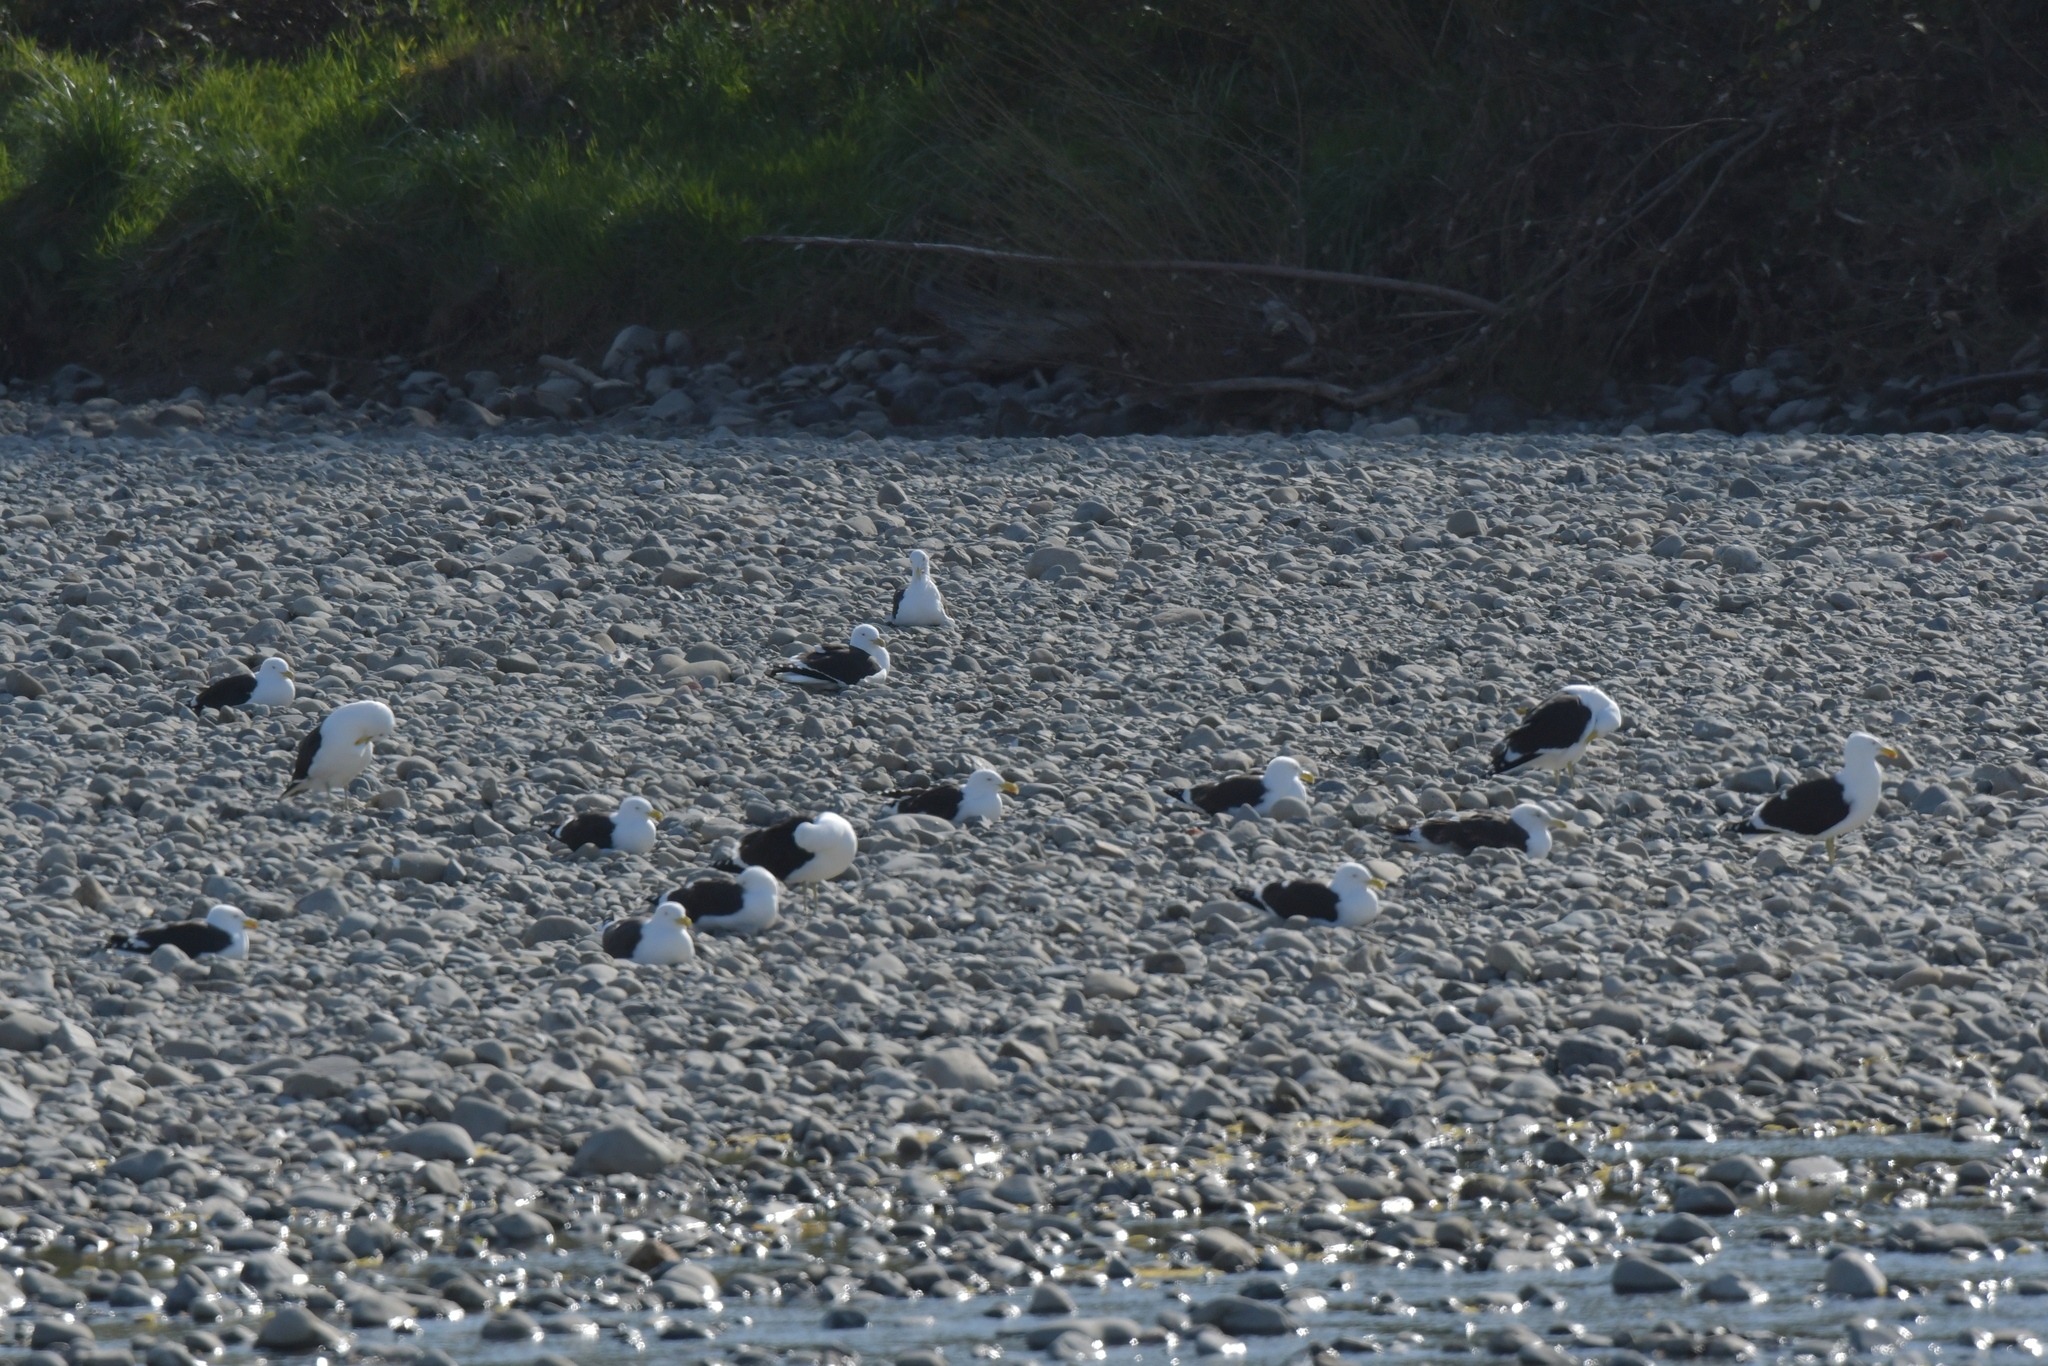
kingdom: Animalia
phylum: Chordata
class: Aves
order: Charadriiformes
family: Laridae
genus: Larus
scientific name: Larus dominicanus
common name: Kelp gull
